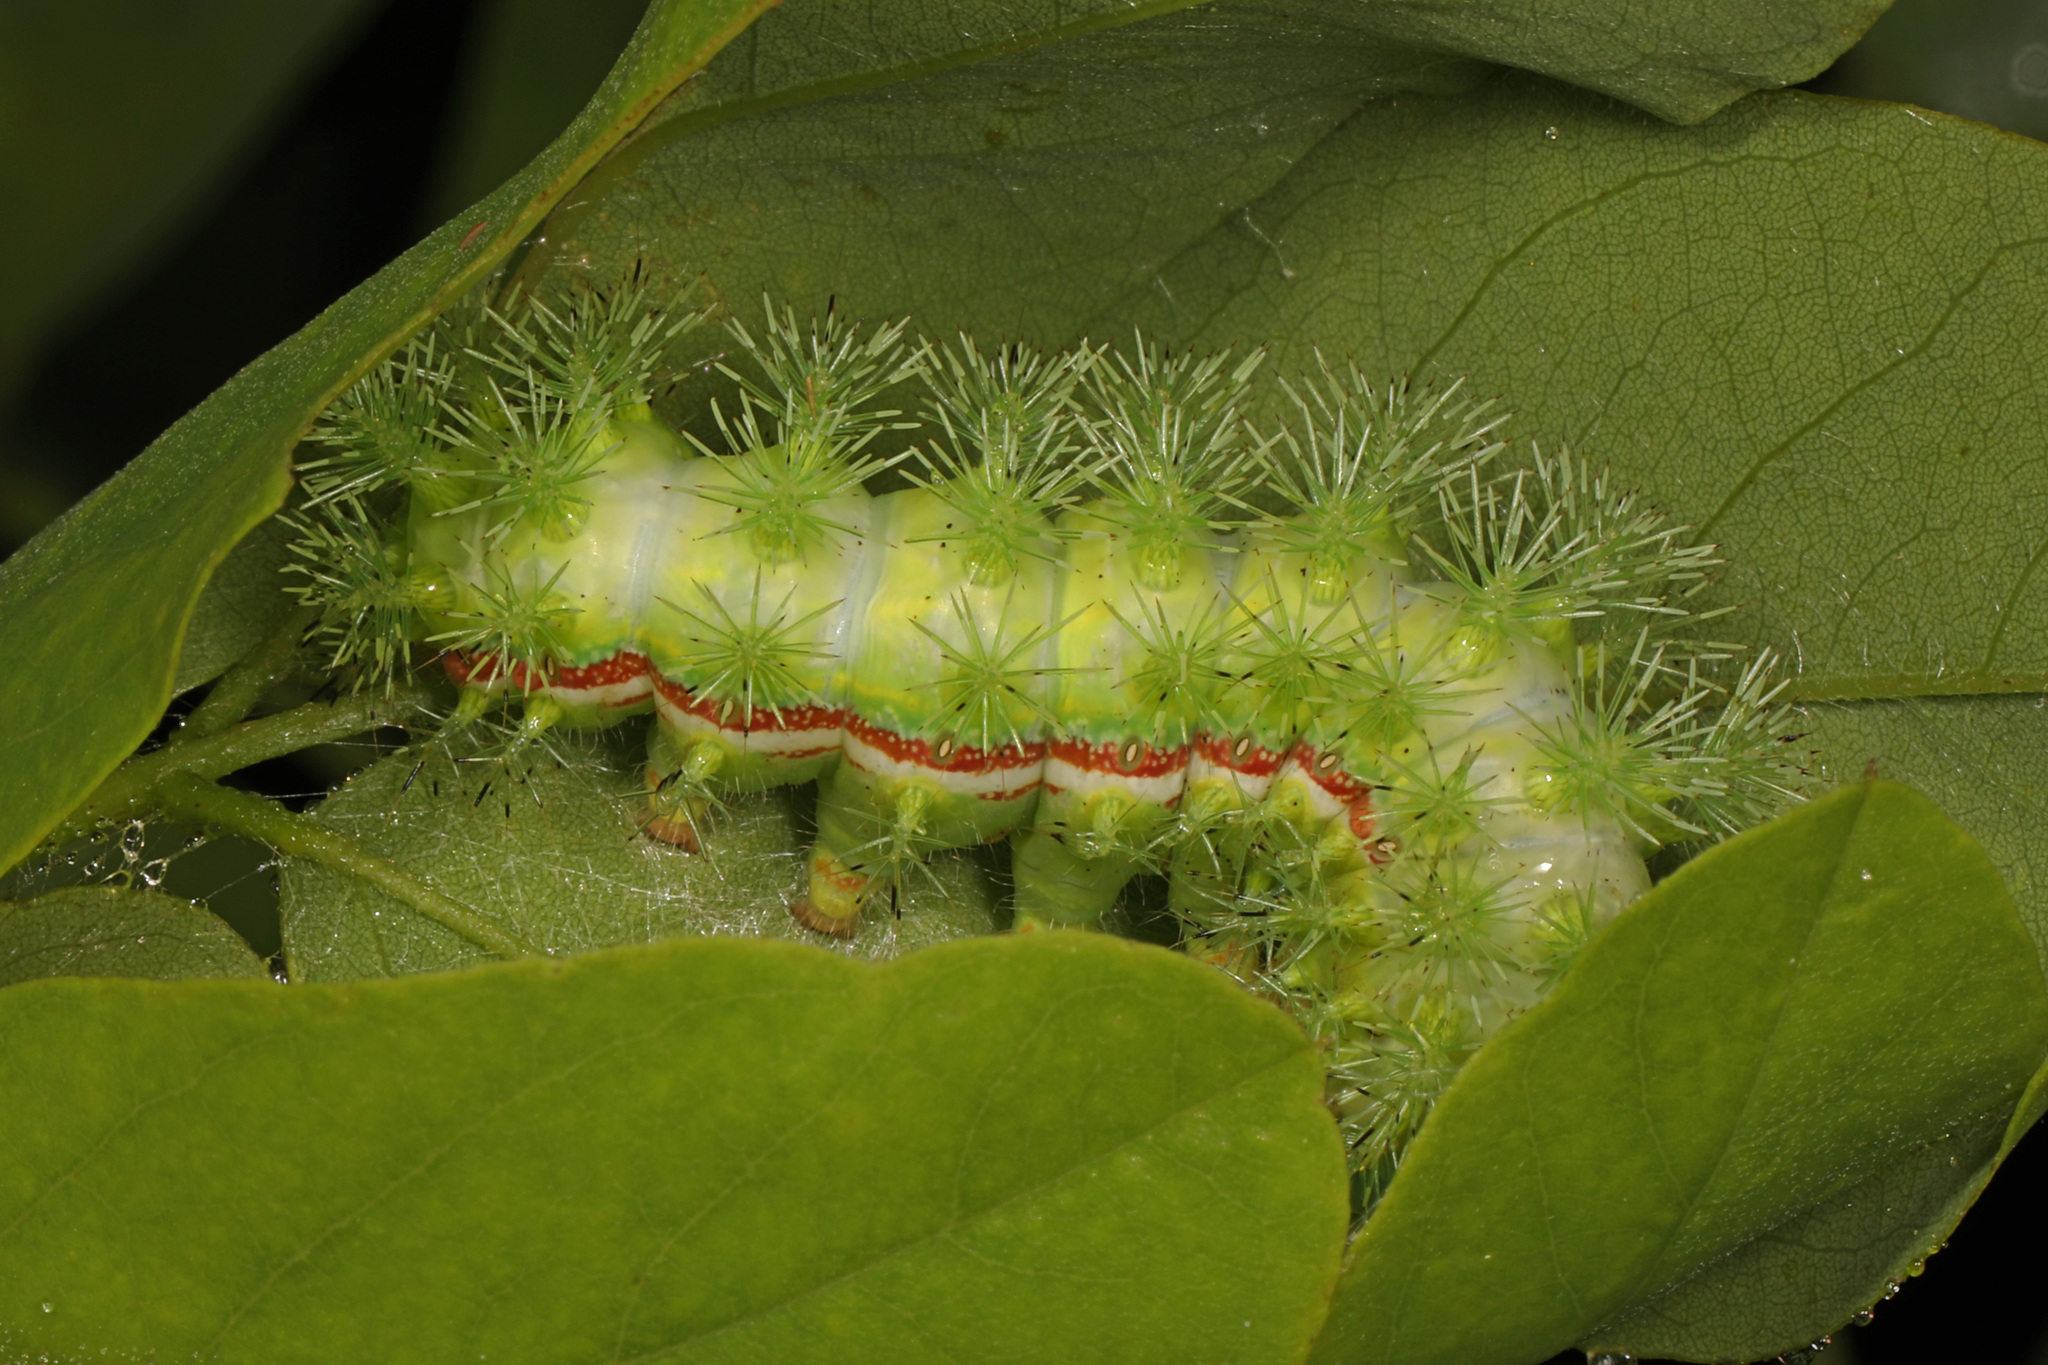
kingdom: Animalia
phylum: Arthropoda
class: Insecta
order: Lepidoptera
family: Saturniidae
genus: Automeris
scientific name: Automeris io
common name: Io moth
